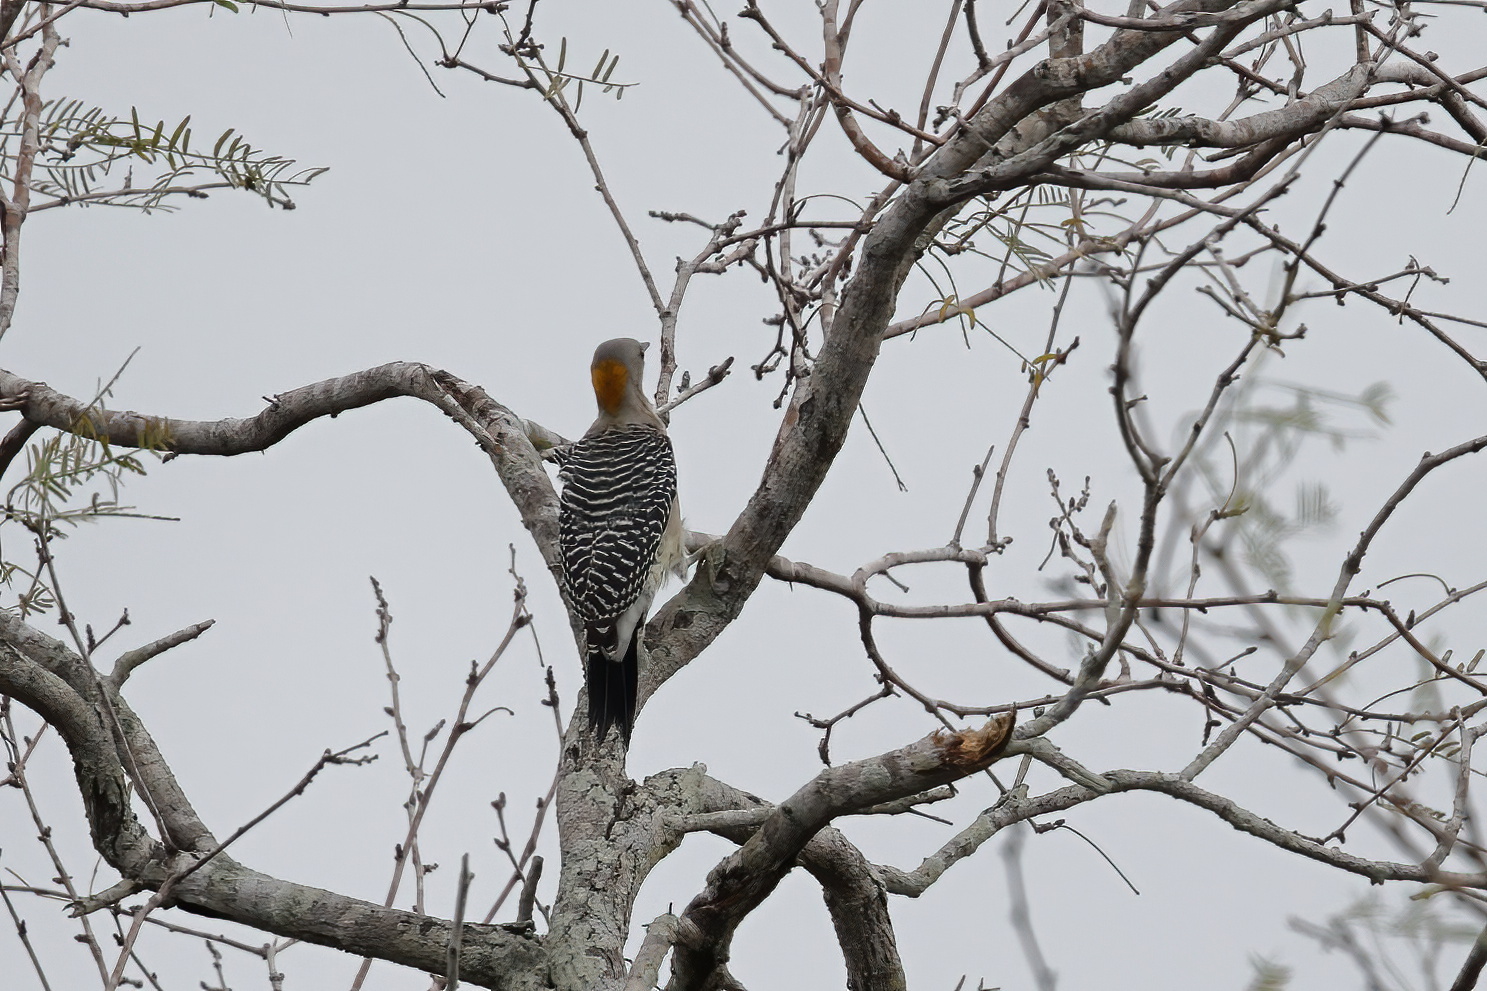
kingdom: Animalia
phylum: Chordata
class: Aves
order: Piciformes
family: Picidae
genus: Melanerpes
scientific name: Melanerpes aurifrons
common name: Golden-fronted woodpecker
